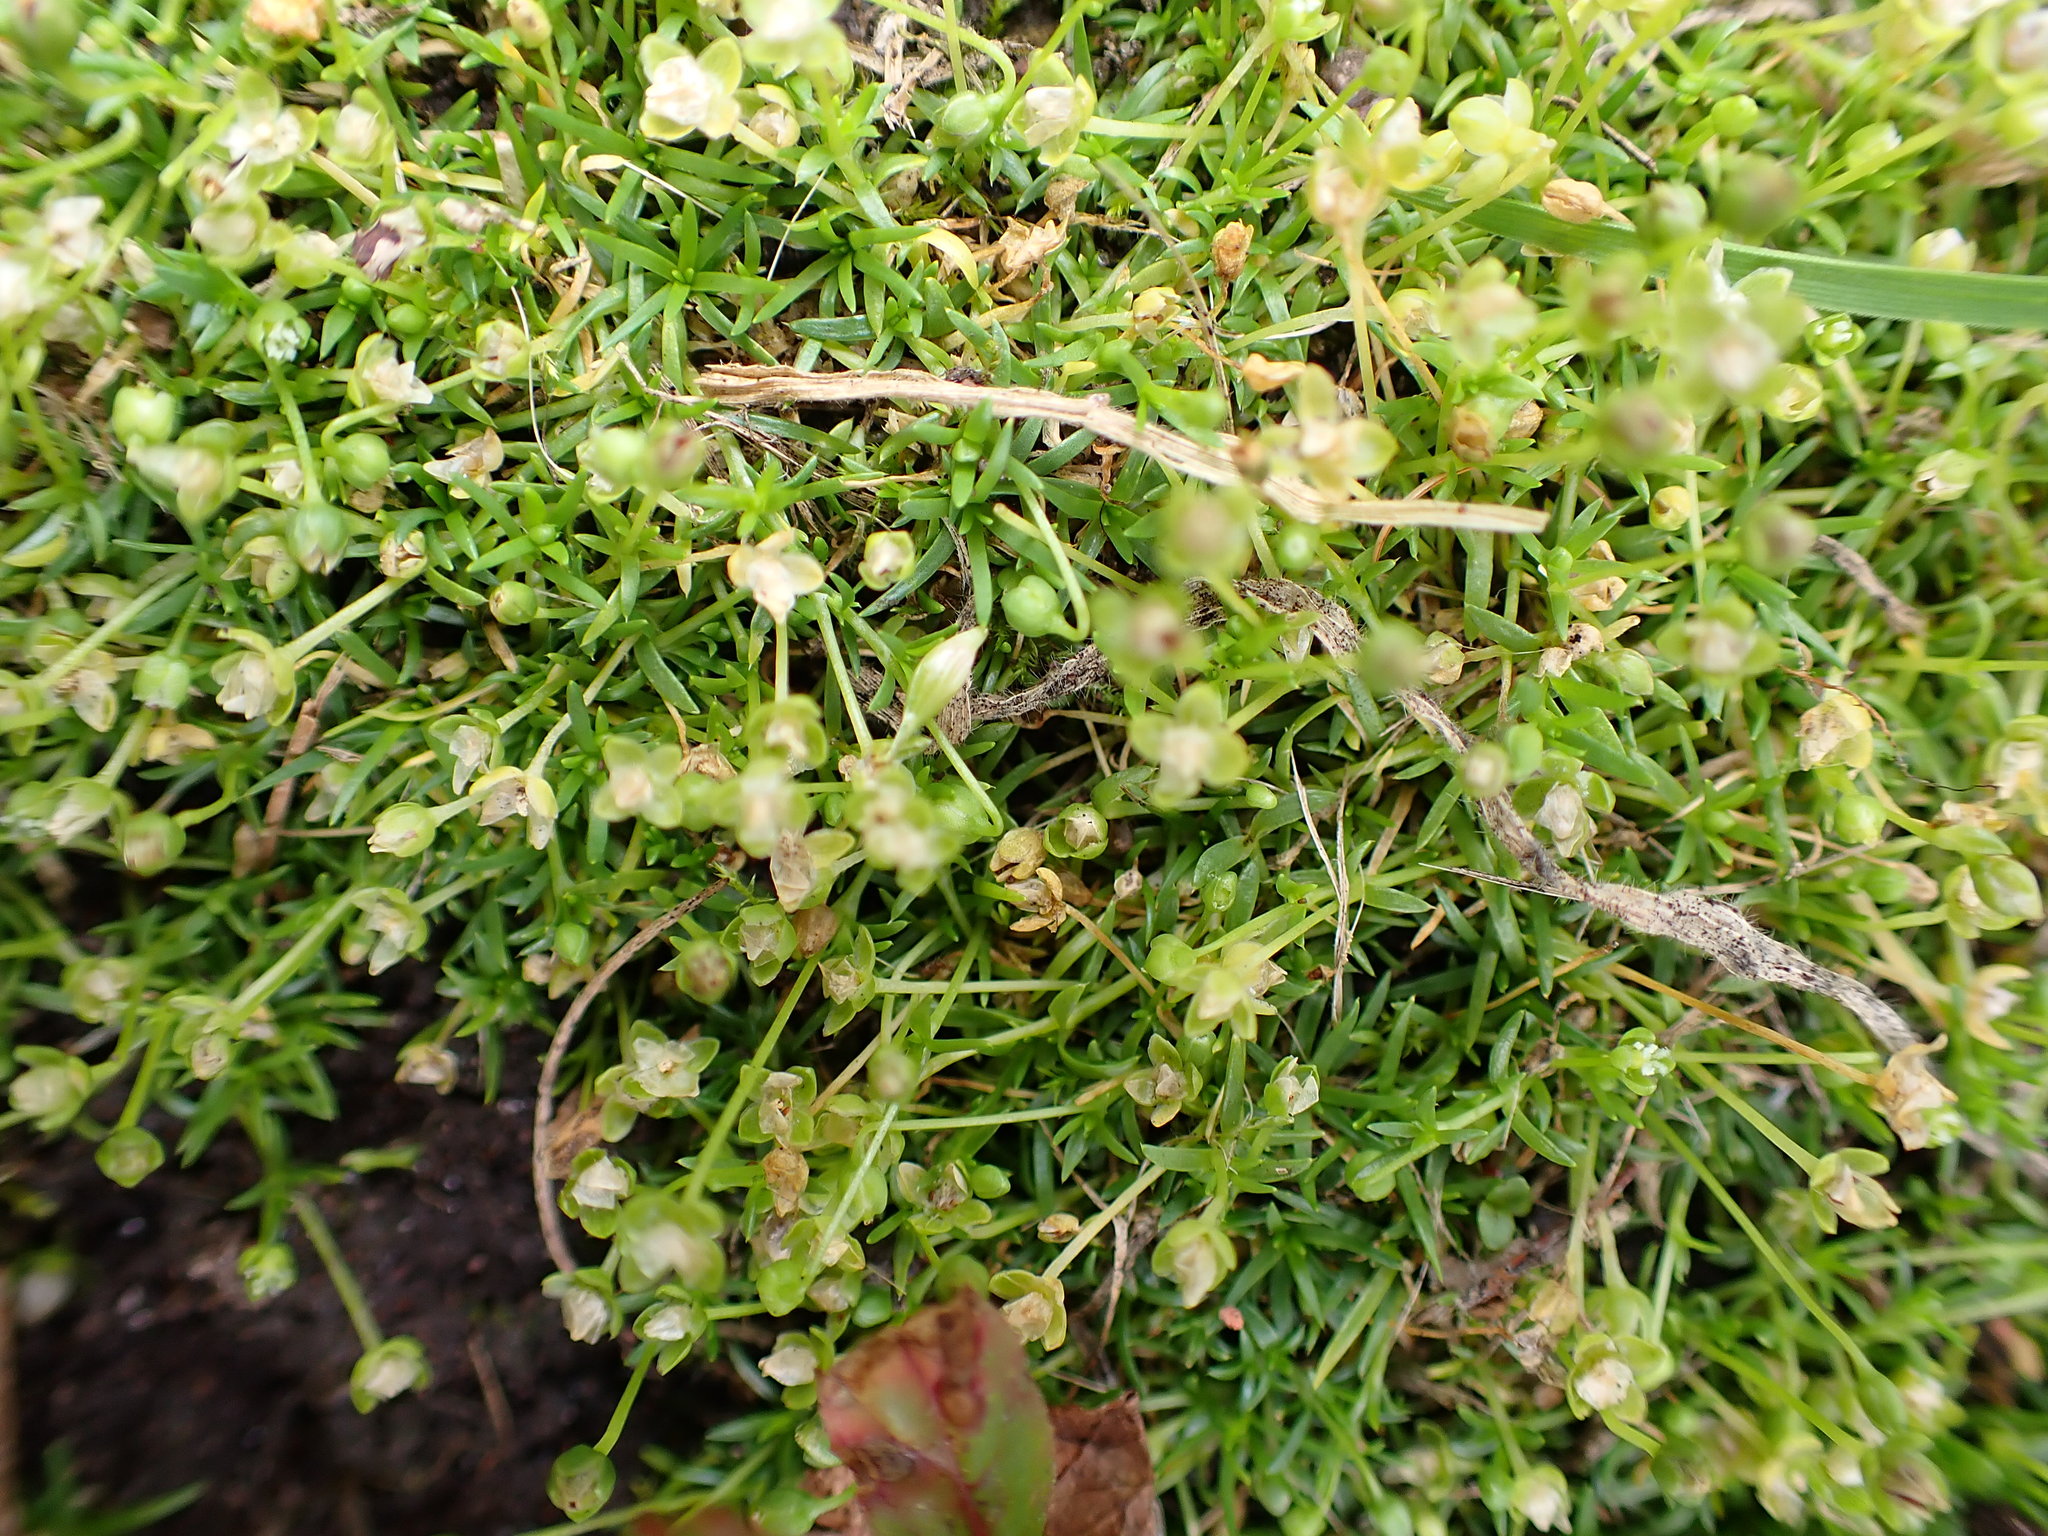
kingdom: Plantae
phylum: Tracheophyta
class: Magnoliopsida
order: Caryophyllales
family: Caryophyllaceae
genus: Sagina
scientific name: Sagina procumbens
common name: Procumbent pearlwort
